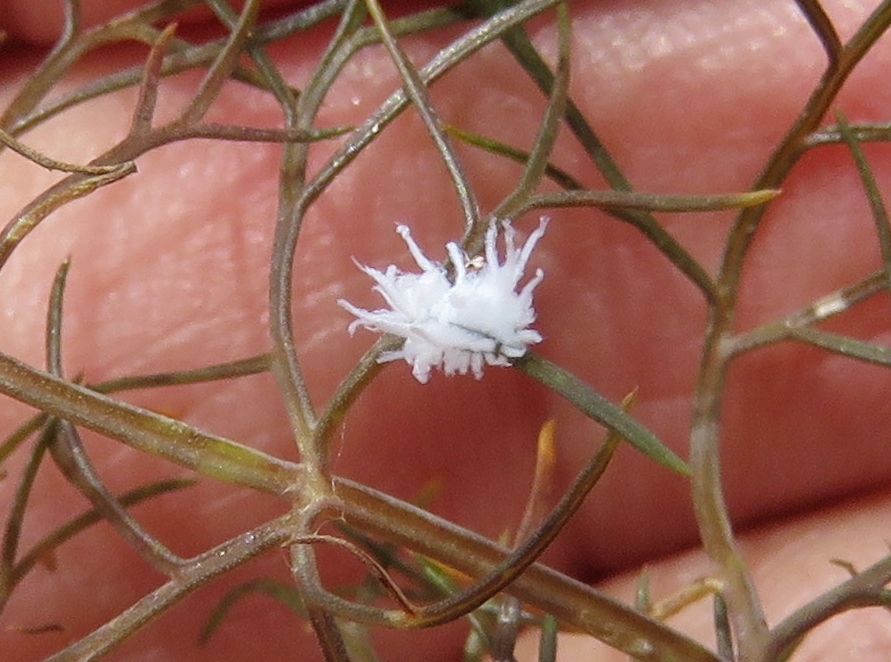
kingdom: Animalia
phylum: Arthropoda
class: Insecta
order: Coleoptera
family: Coccinellidae
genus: Cryptolaemus
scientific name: Cryptolaemus montrouzieri
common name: Mealybug destroyer
